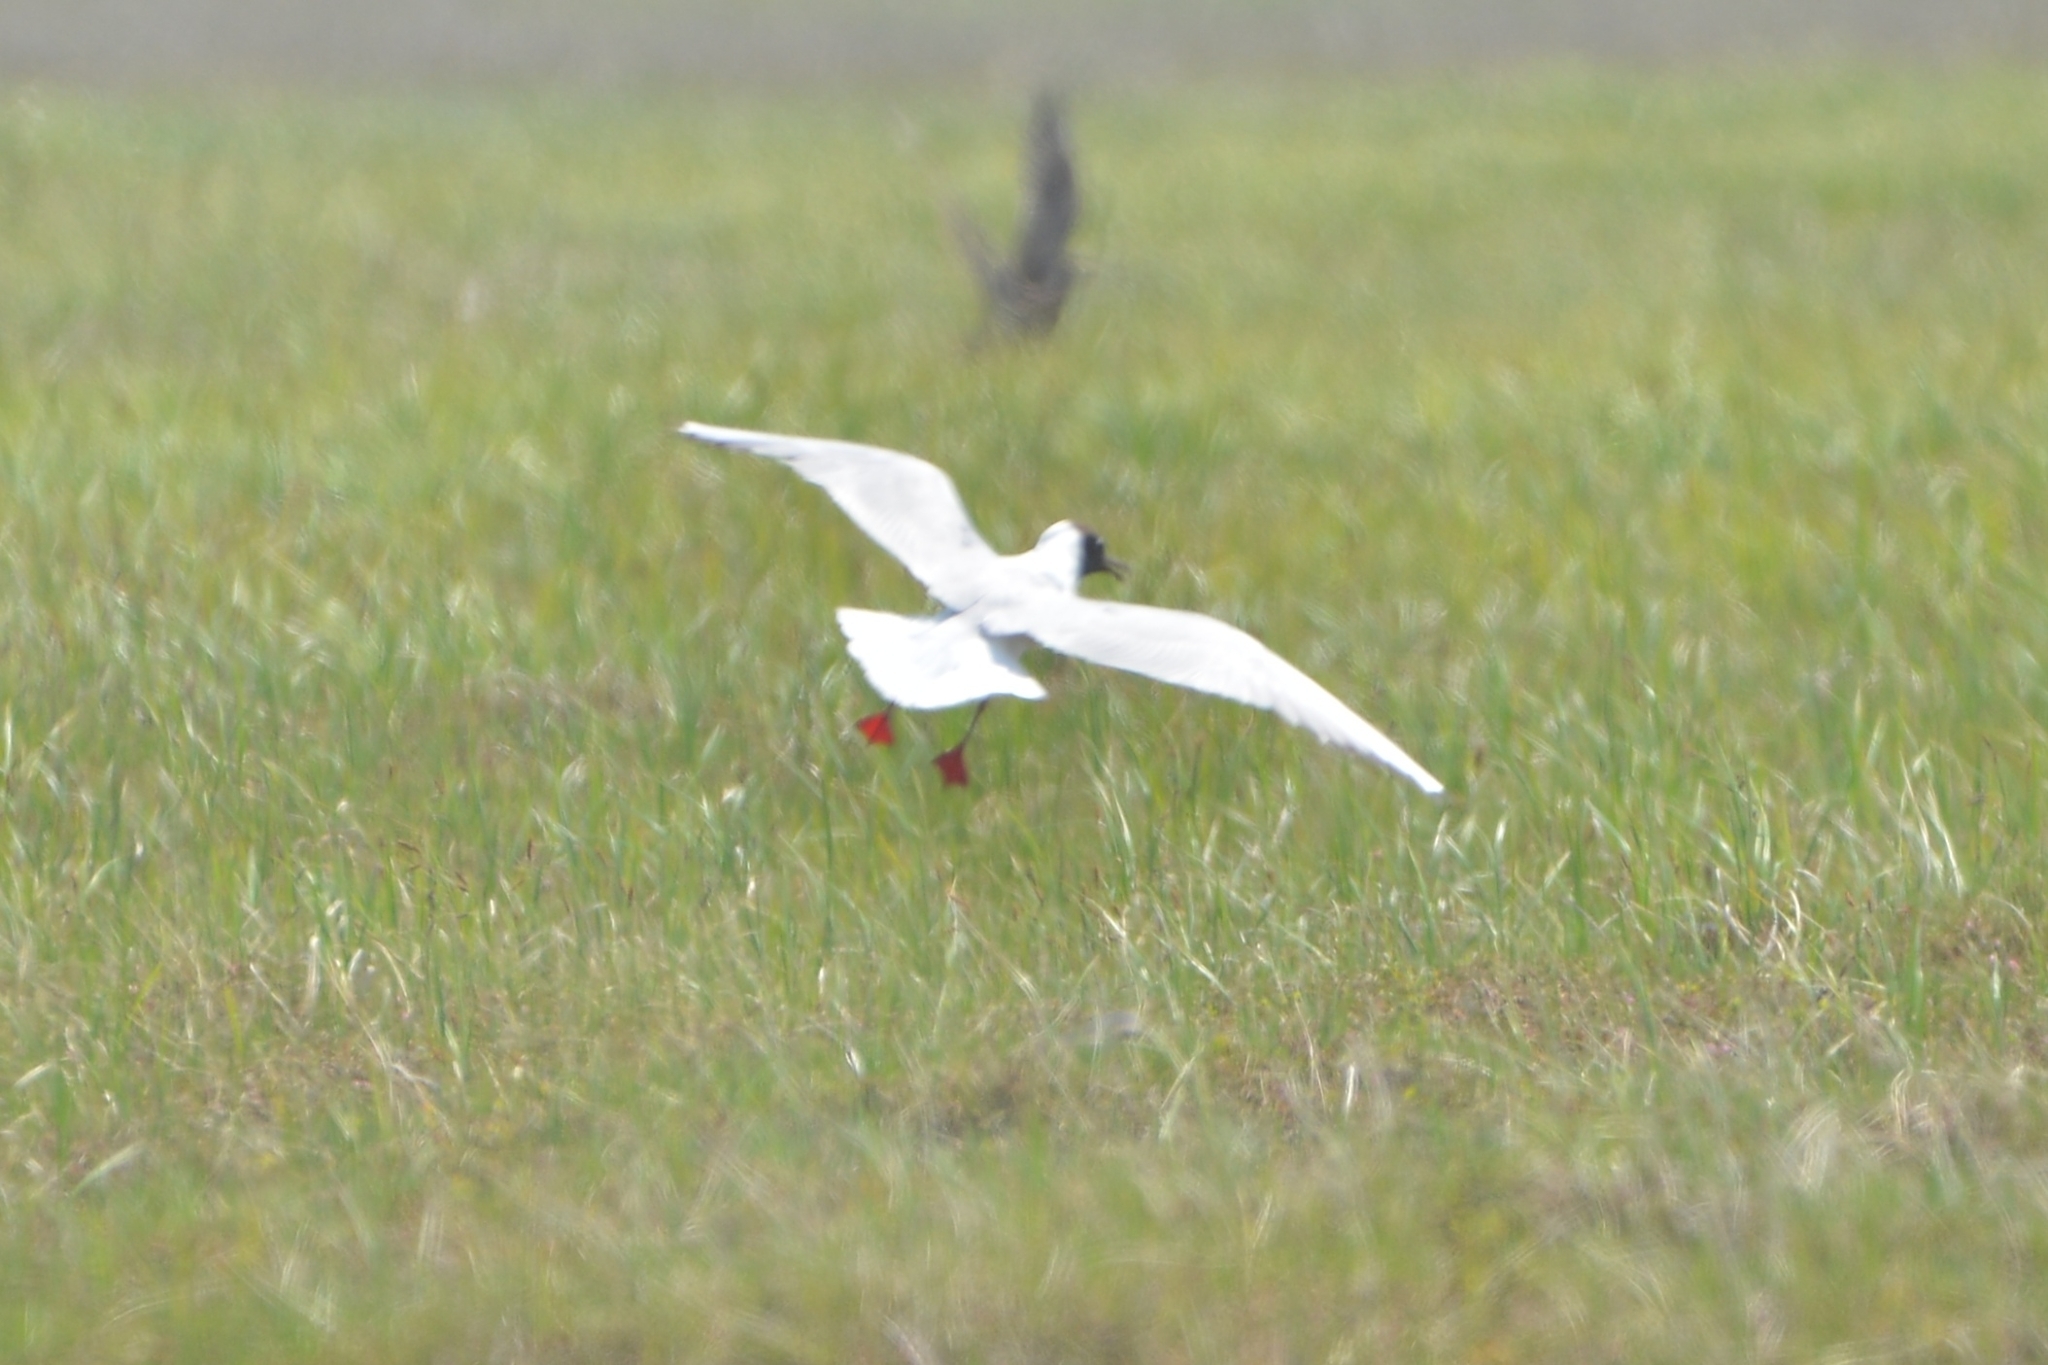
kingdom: Animalia
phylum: Chordata
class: Aves
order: Charadriiformes
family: Laridae
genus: Chroicocephalus
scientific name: Chroicocephalus ridibundus
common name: Black-headed gull
